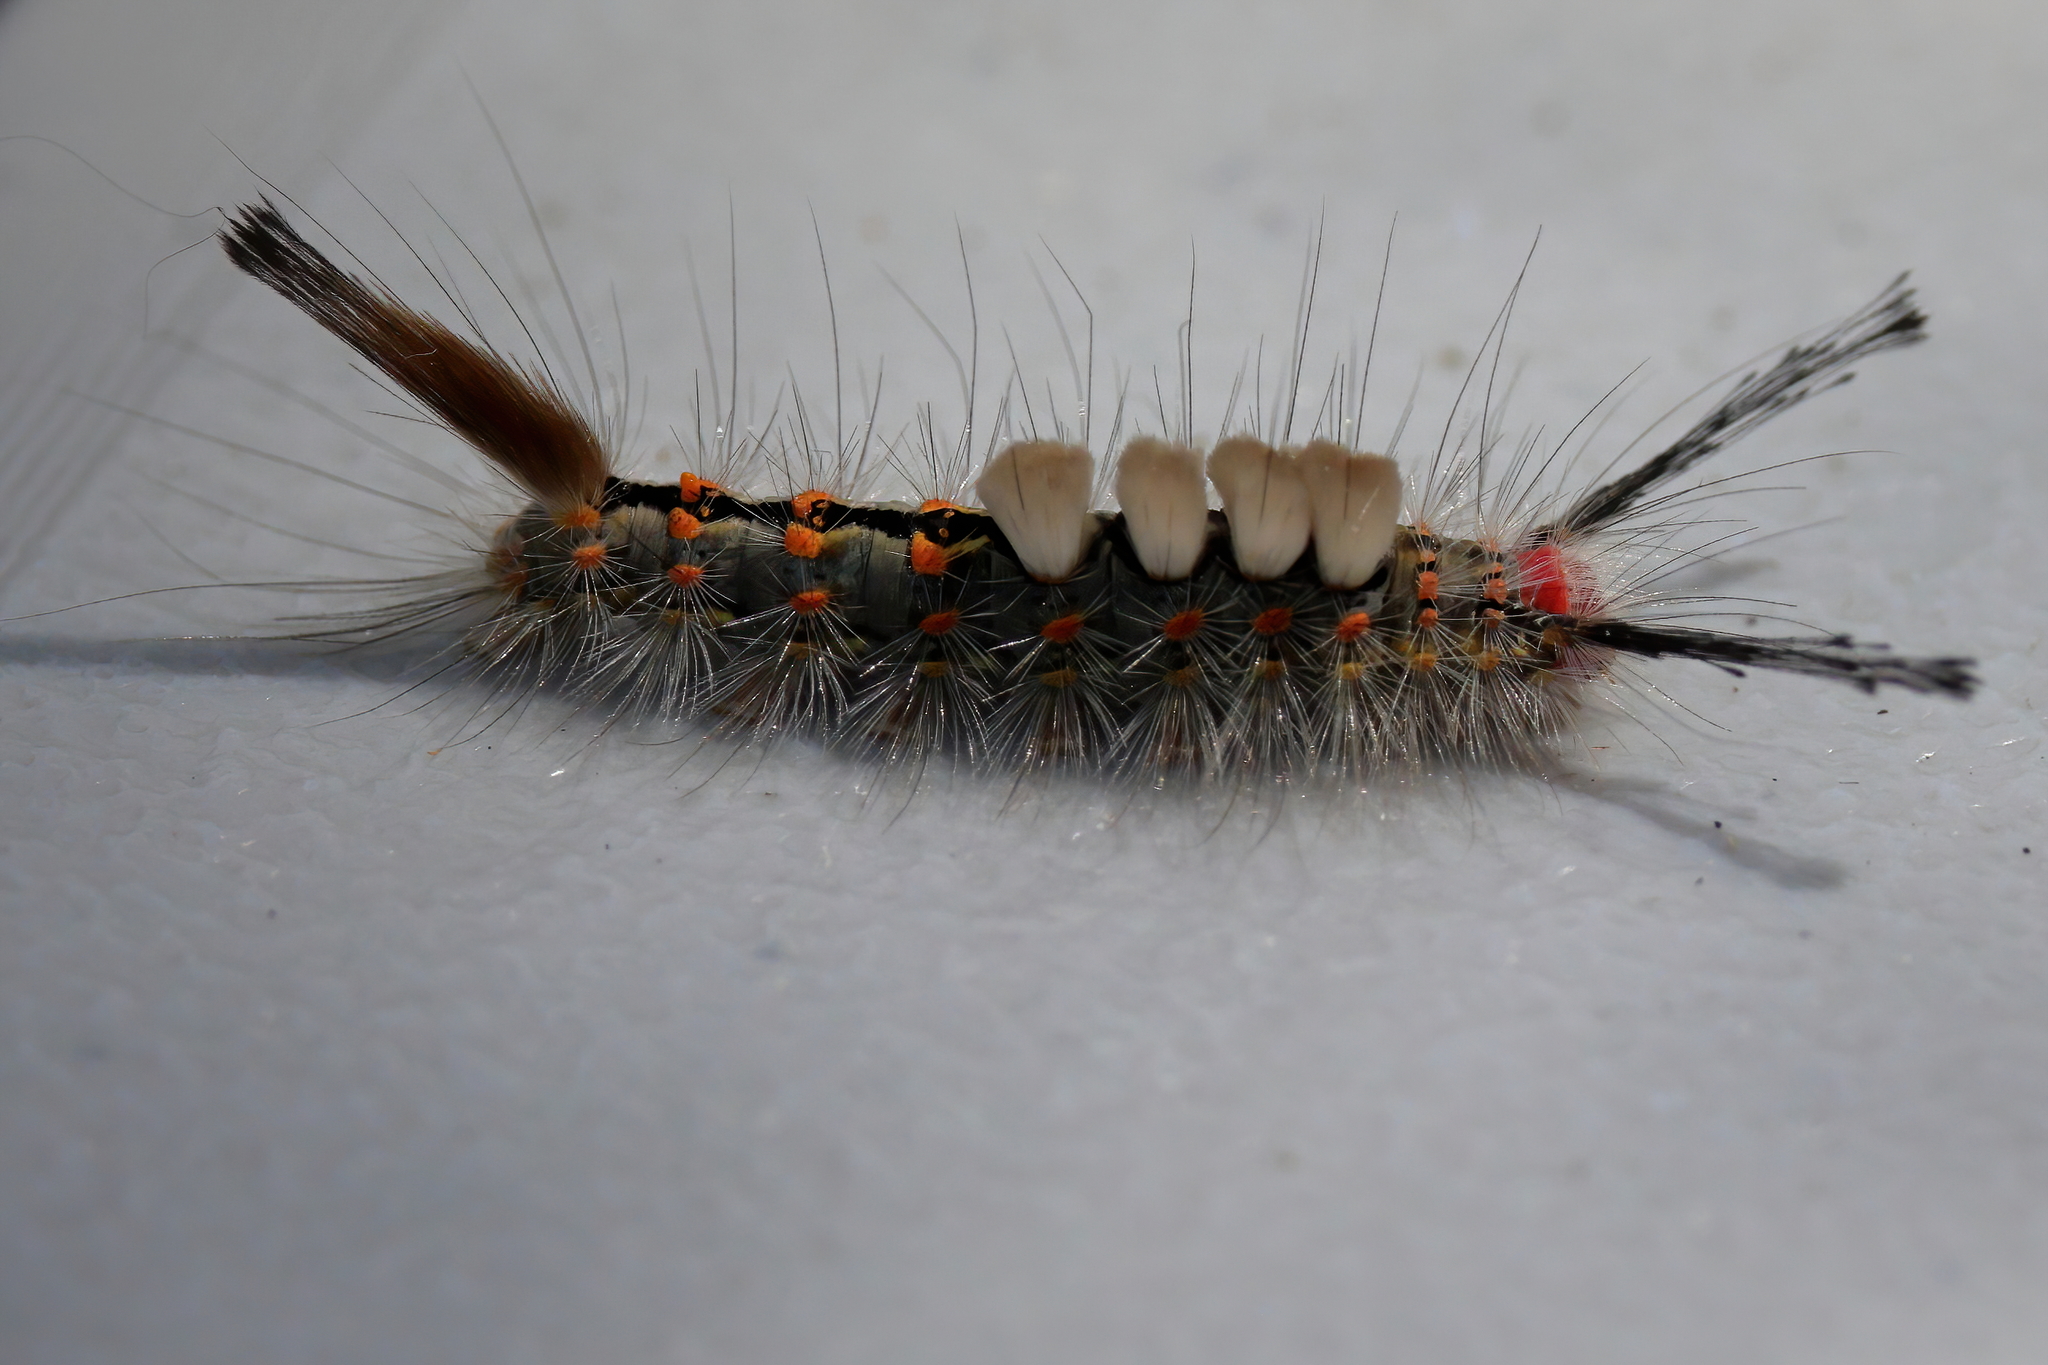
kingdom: Animalia
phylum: Arthropoda
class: Insecta
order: Lepidoptera
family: Erebidae
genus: Orgyia
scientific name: Orgyia detrita
